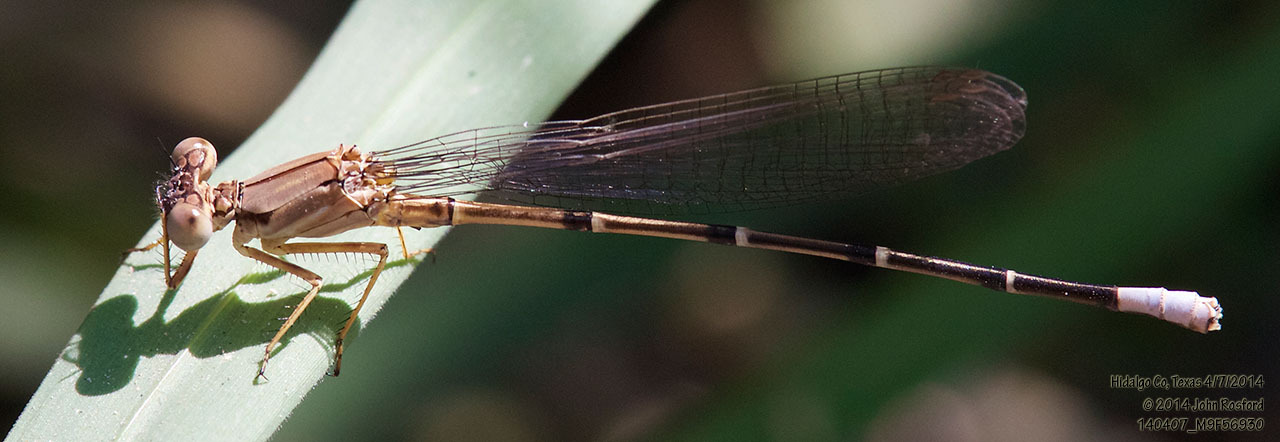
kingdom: Animalia
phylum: Arthropoda
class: Insecta
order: Odonata
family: Coenagrionidae
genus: Argia
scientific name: Argia apicalis
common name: Blue-fronted dancer
